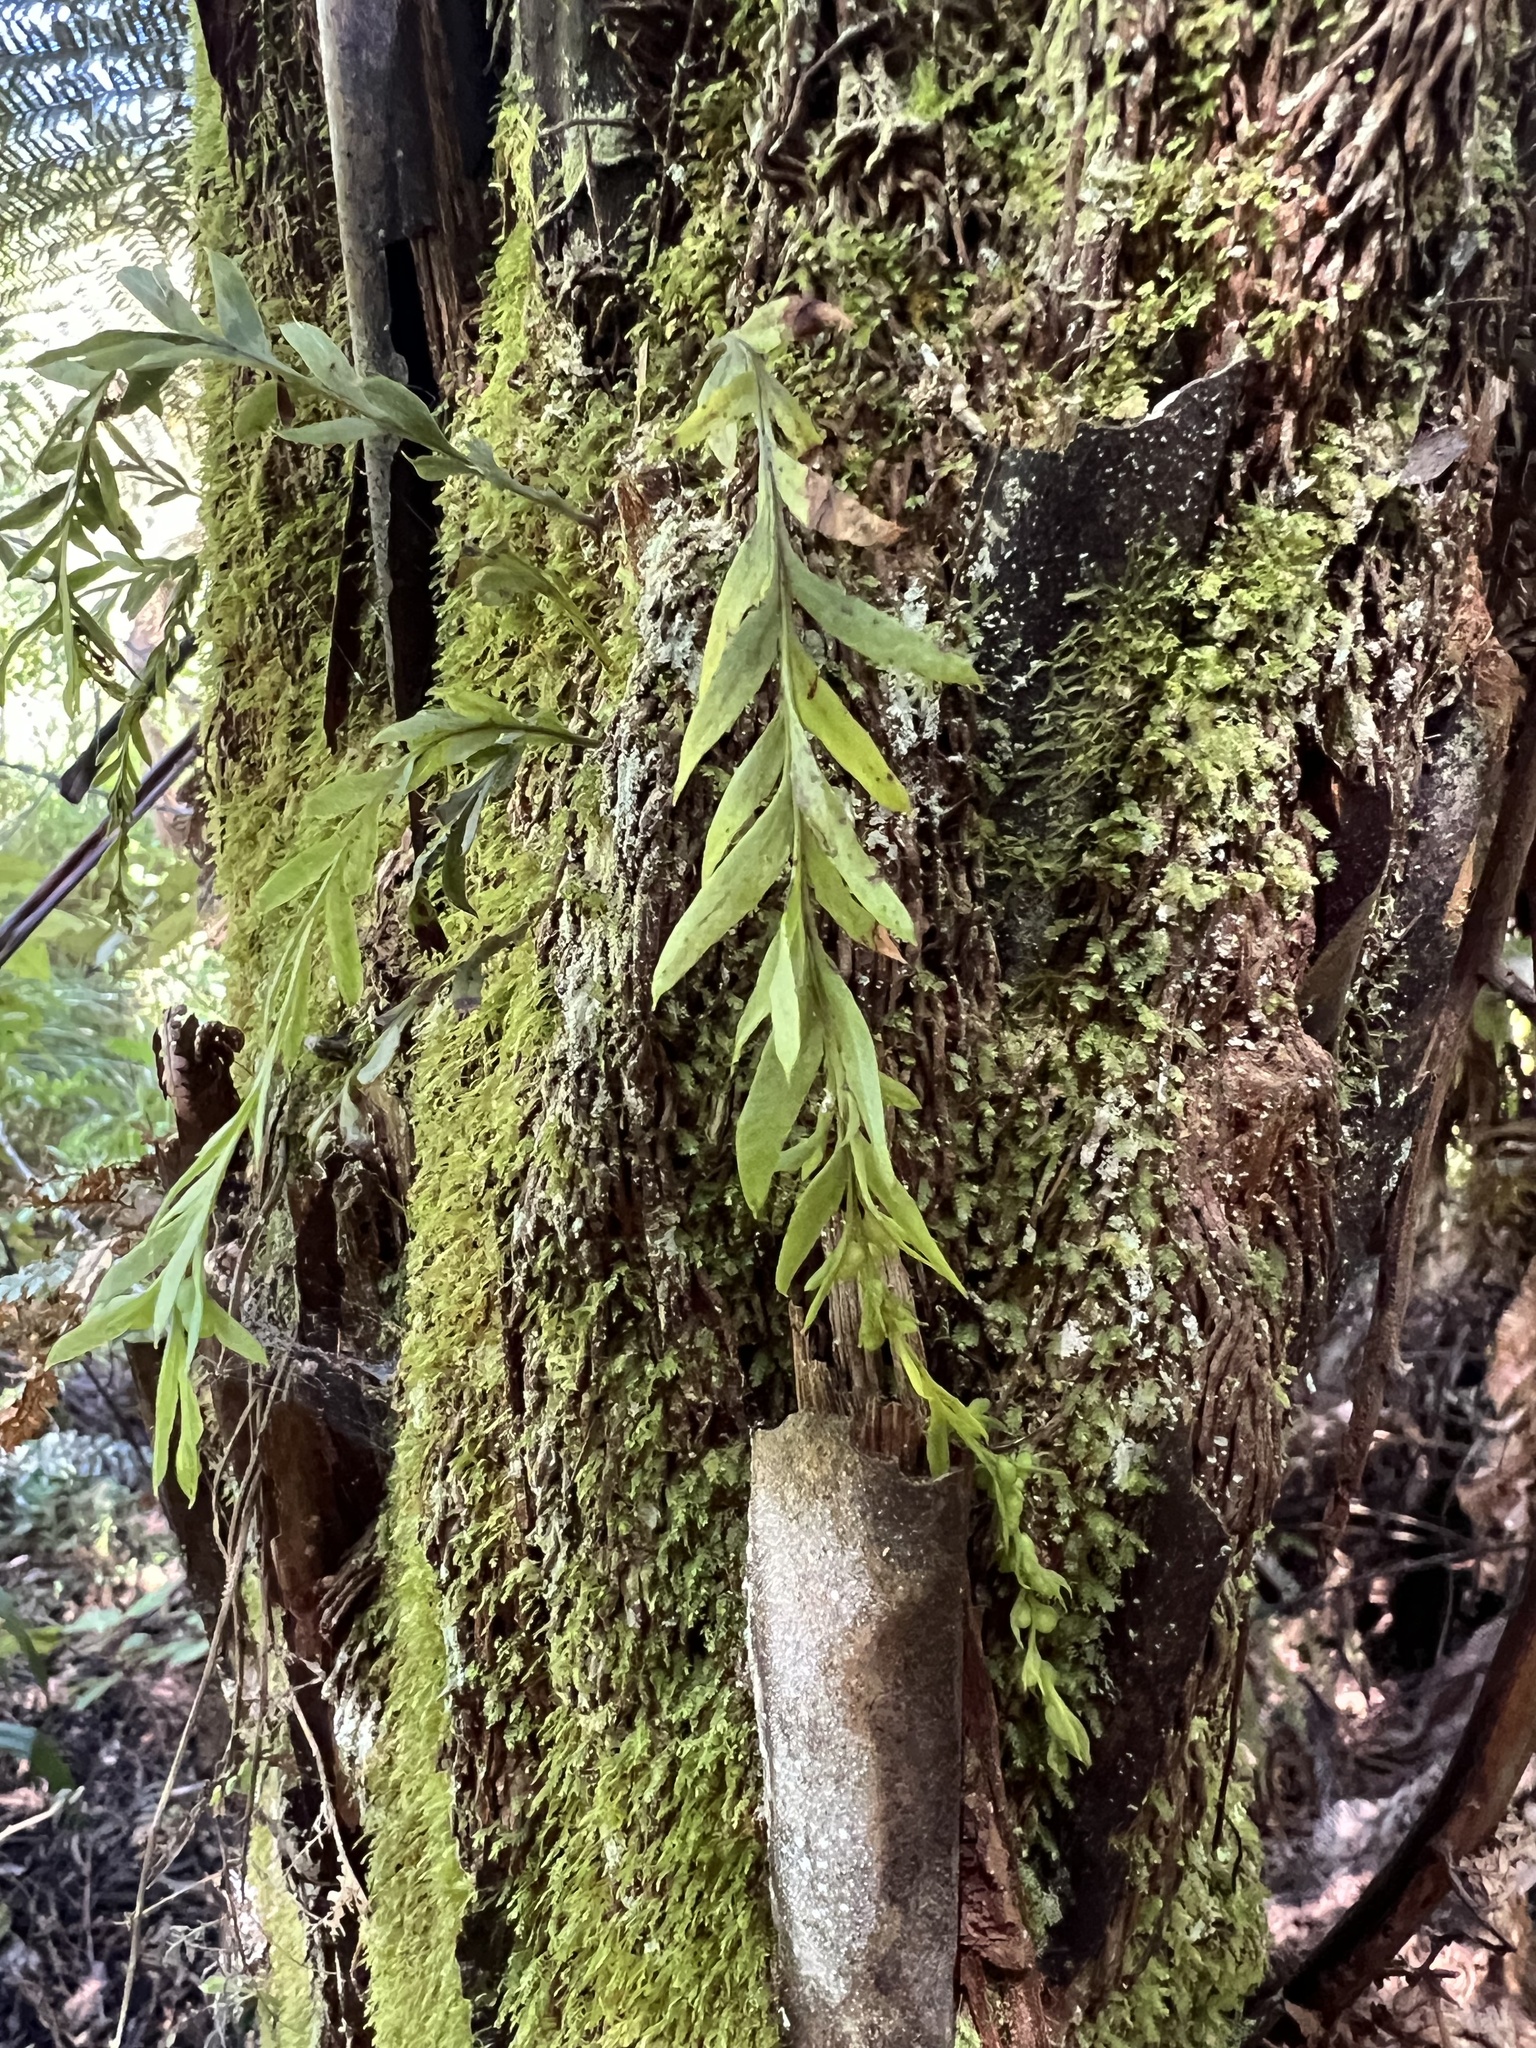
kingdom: Plantae
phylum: Tracheophyta
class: Polypodiopsida
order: Psilotales
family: Psilotaceae
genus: Tmesipteris
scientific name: Tmesipteris elongata
